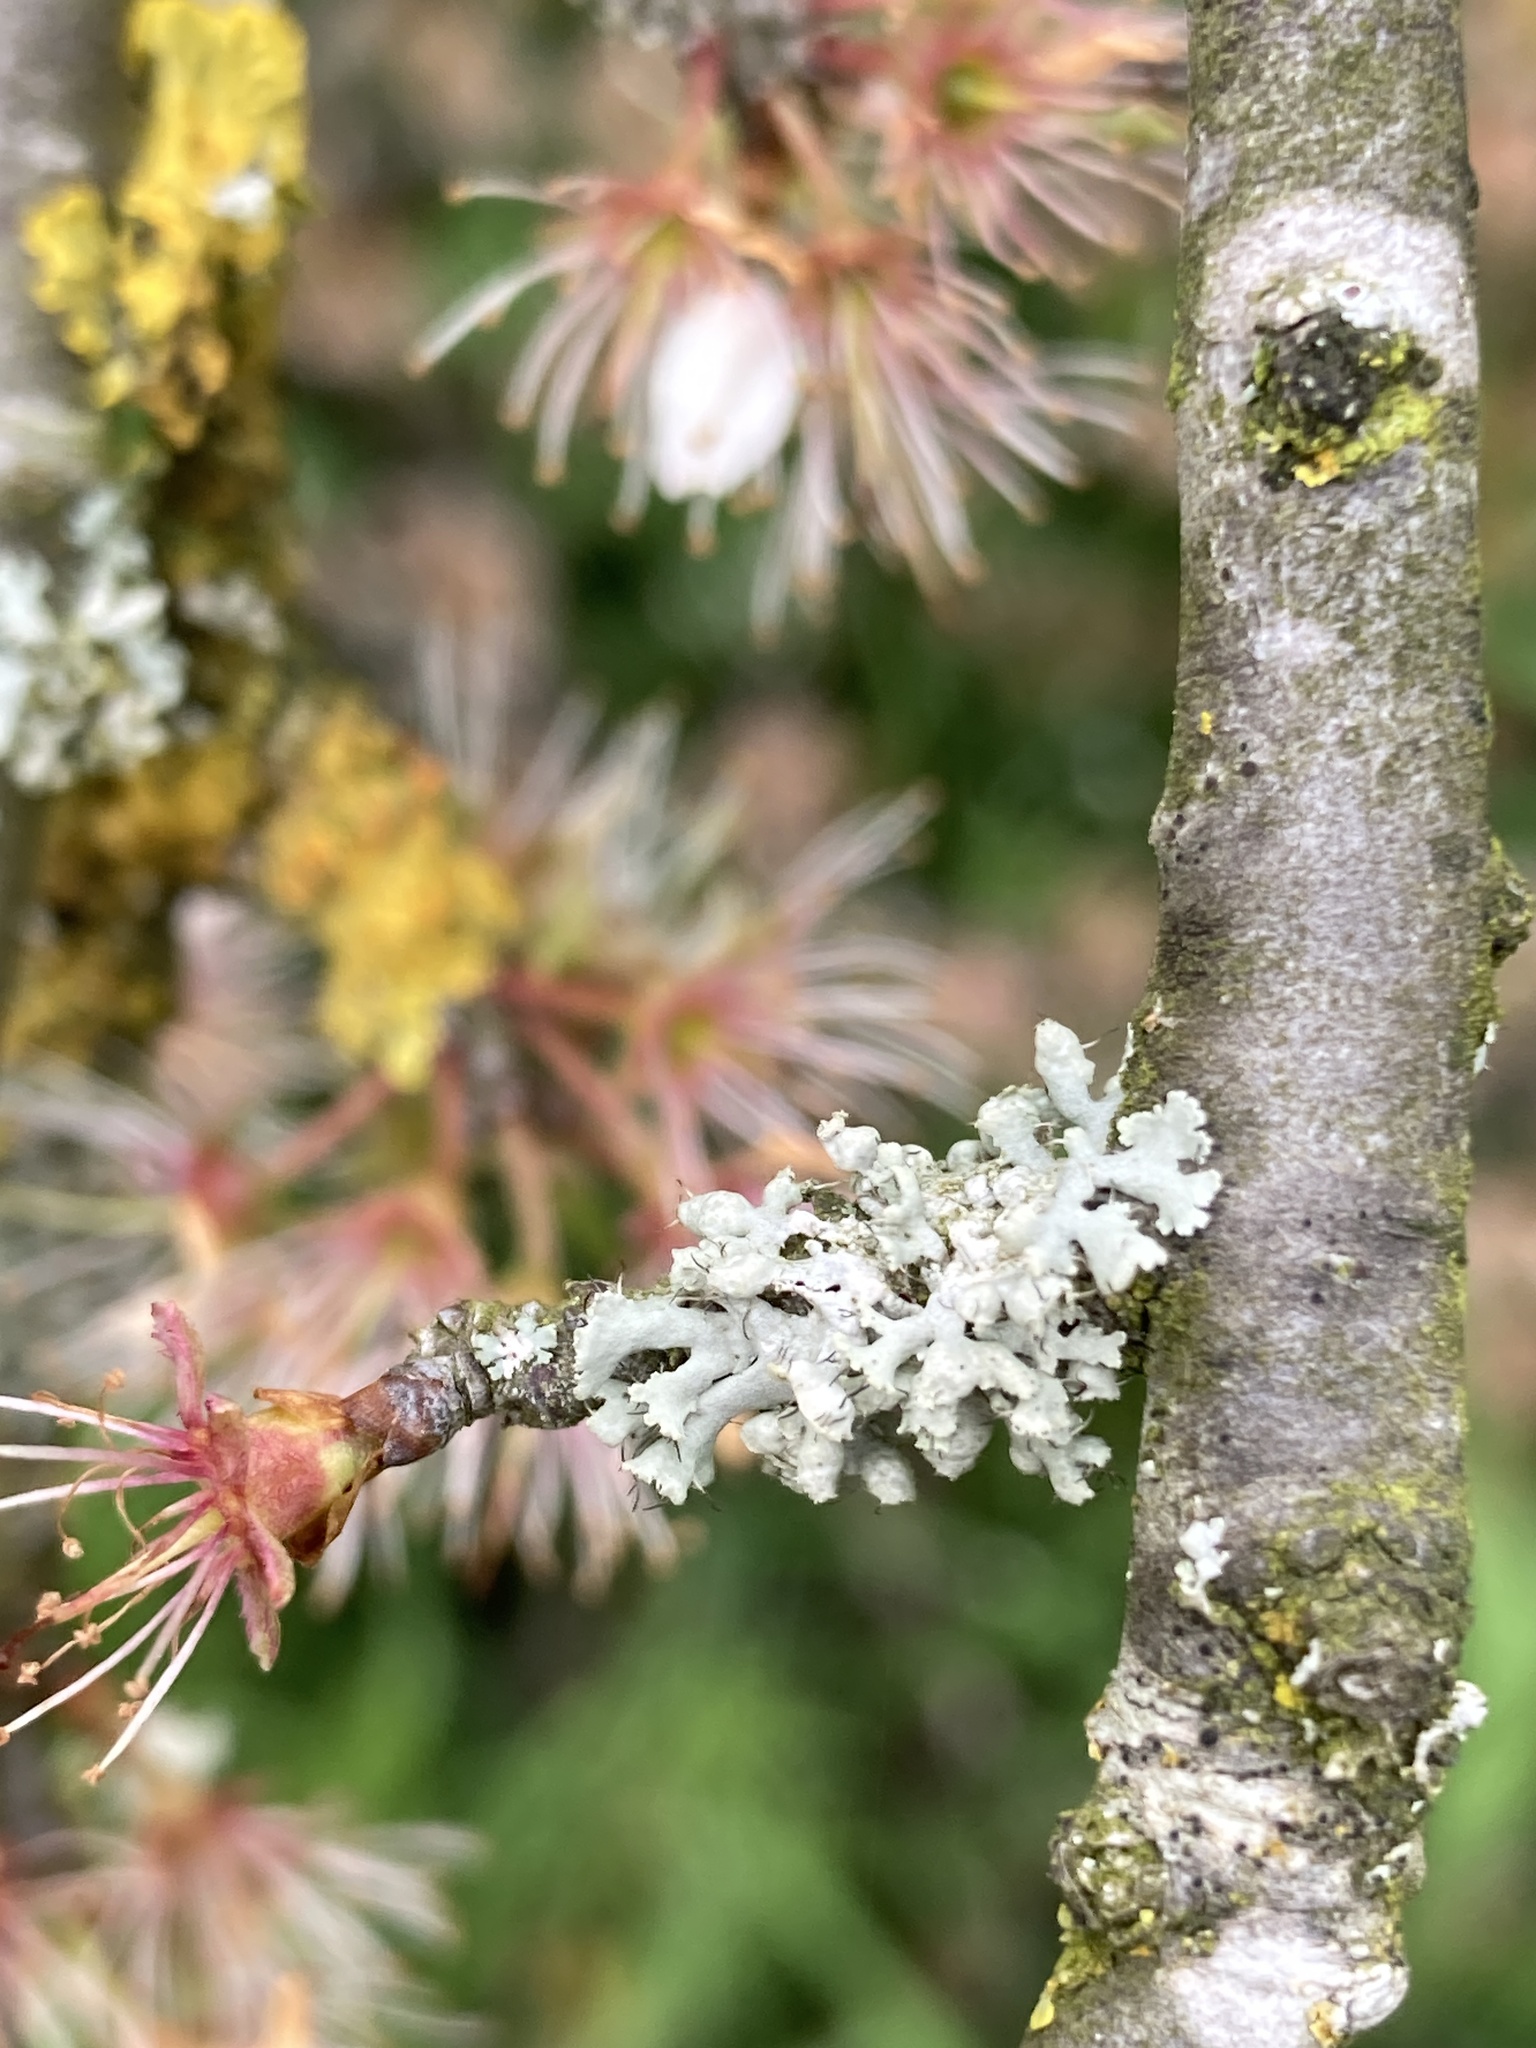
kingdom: Fungi
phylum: Ascomycota
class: Lecanoromycetes
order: Caliciales
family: Physciaceae
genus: Physcia
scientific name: Physcia adscendens
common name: Hooded rosette lichen
